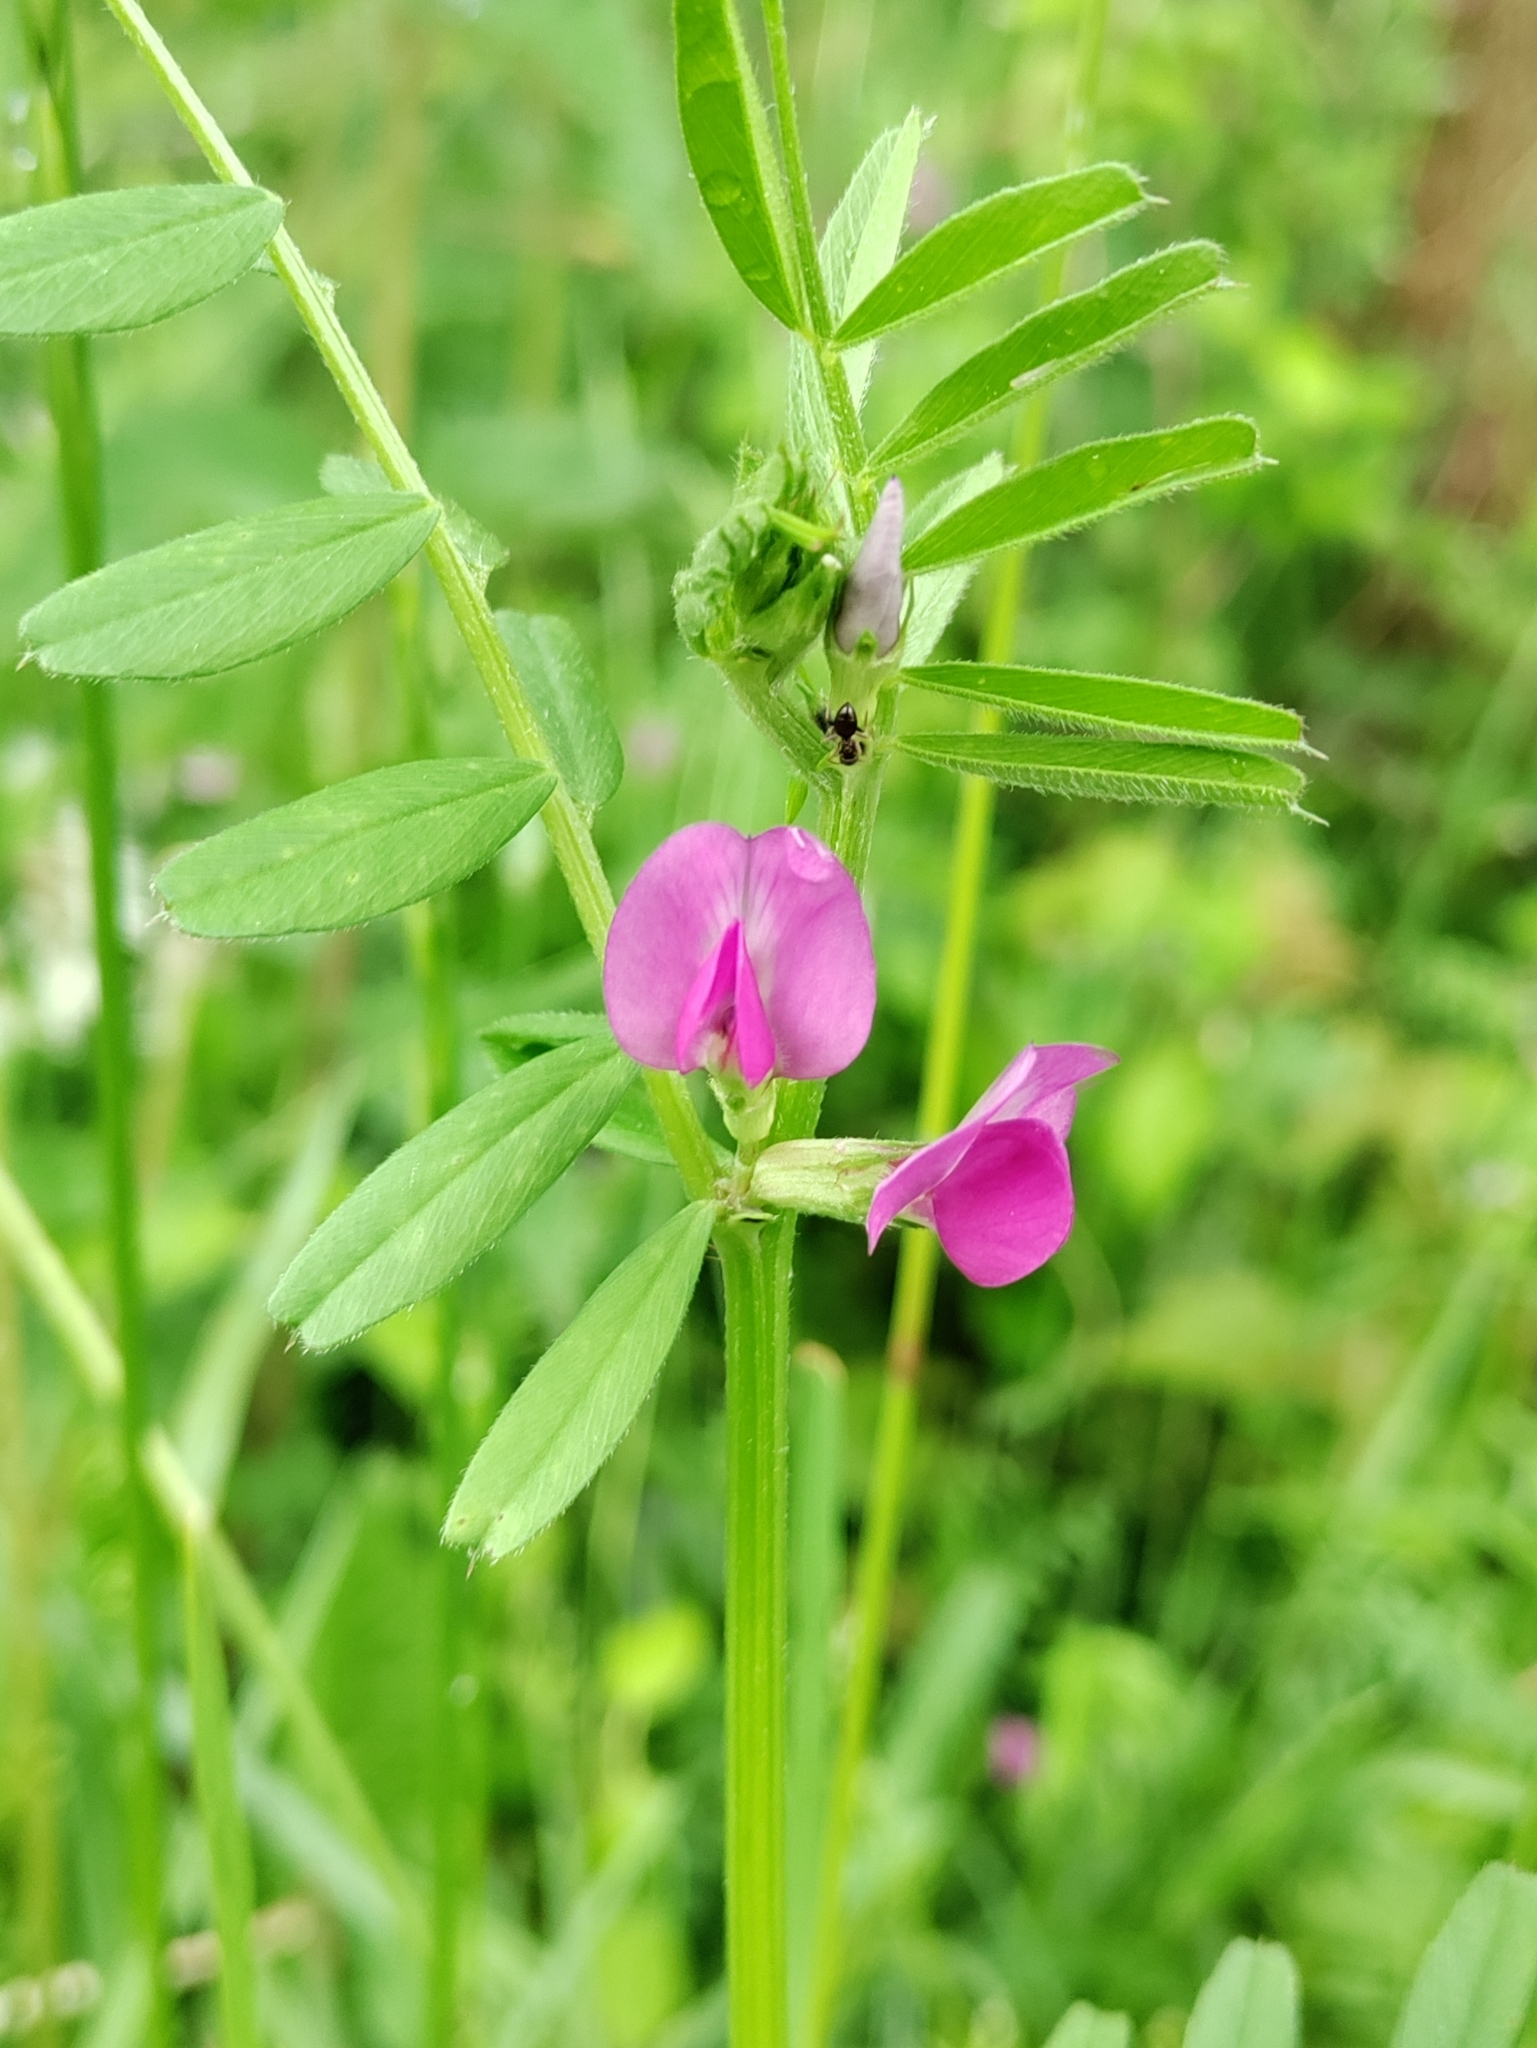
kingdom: Plantae
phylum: Tracheophyta
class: Magnoliopsida
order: Fabales
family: Fabaceae
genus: Vicia
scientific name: Vicia sativa
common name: Garden vetch
